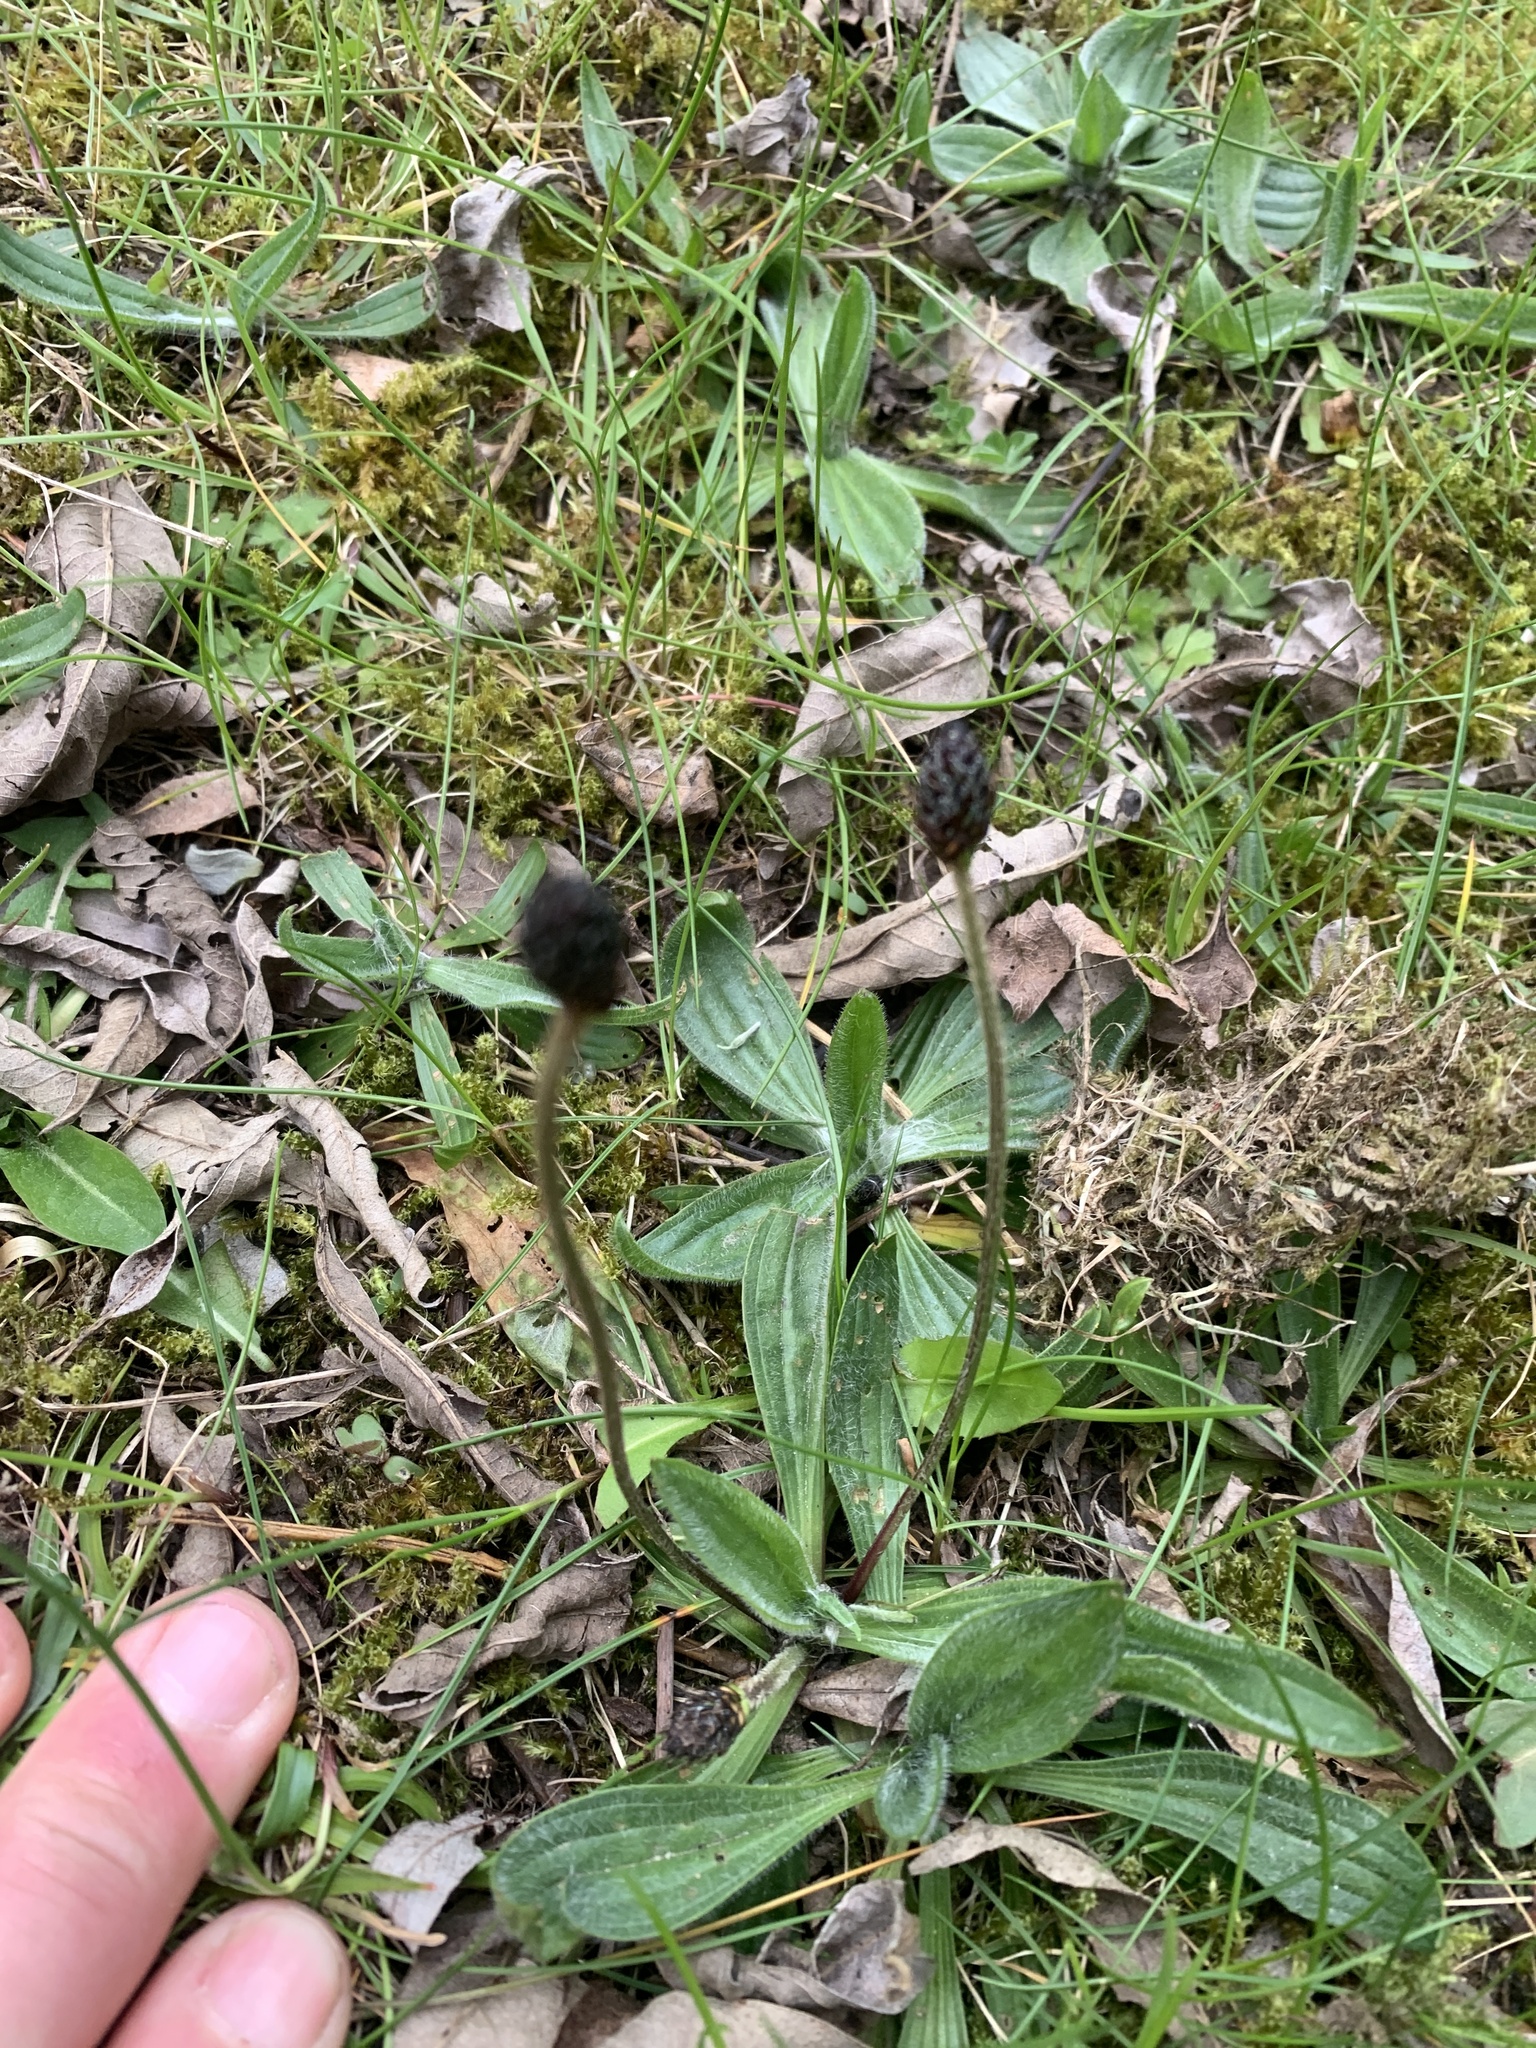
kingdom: Plantae
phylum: Tracheophyta
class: Magnoliopsida
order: Lamiales
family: Plantaginaceae
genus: Plantago
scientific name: Plantago lanceolata
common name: Ribwort plantain
